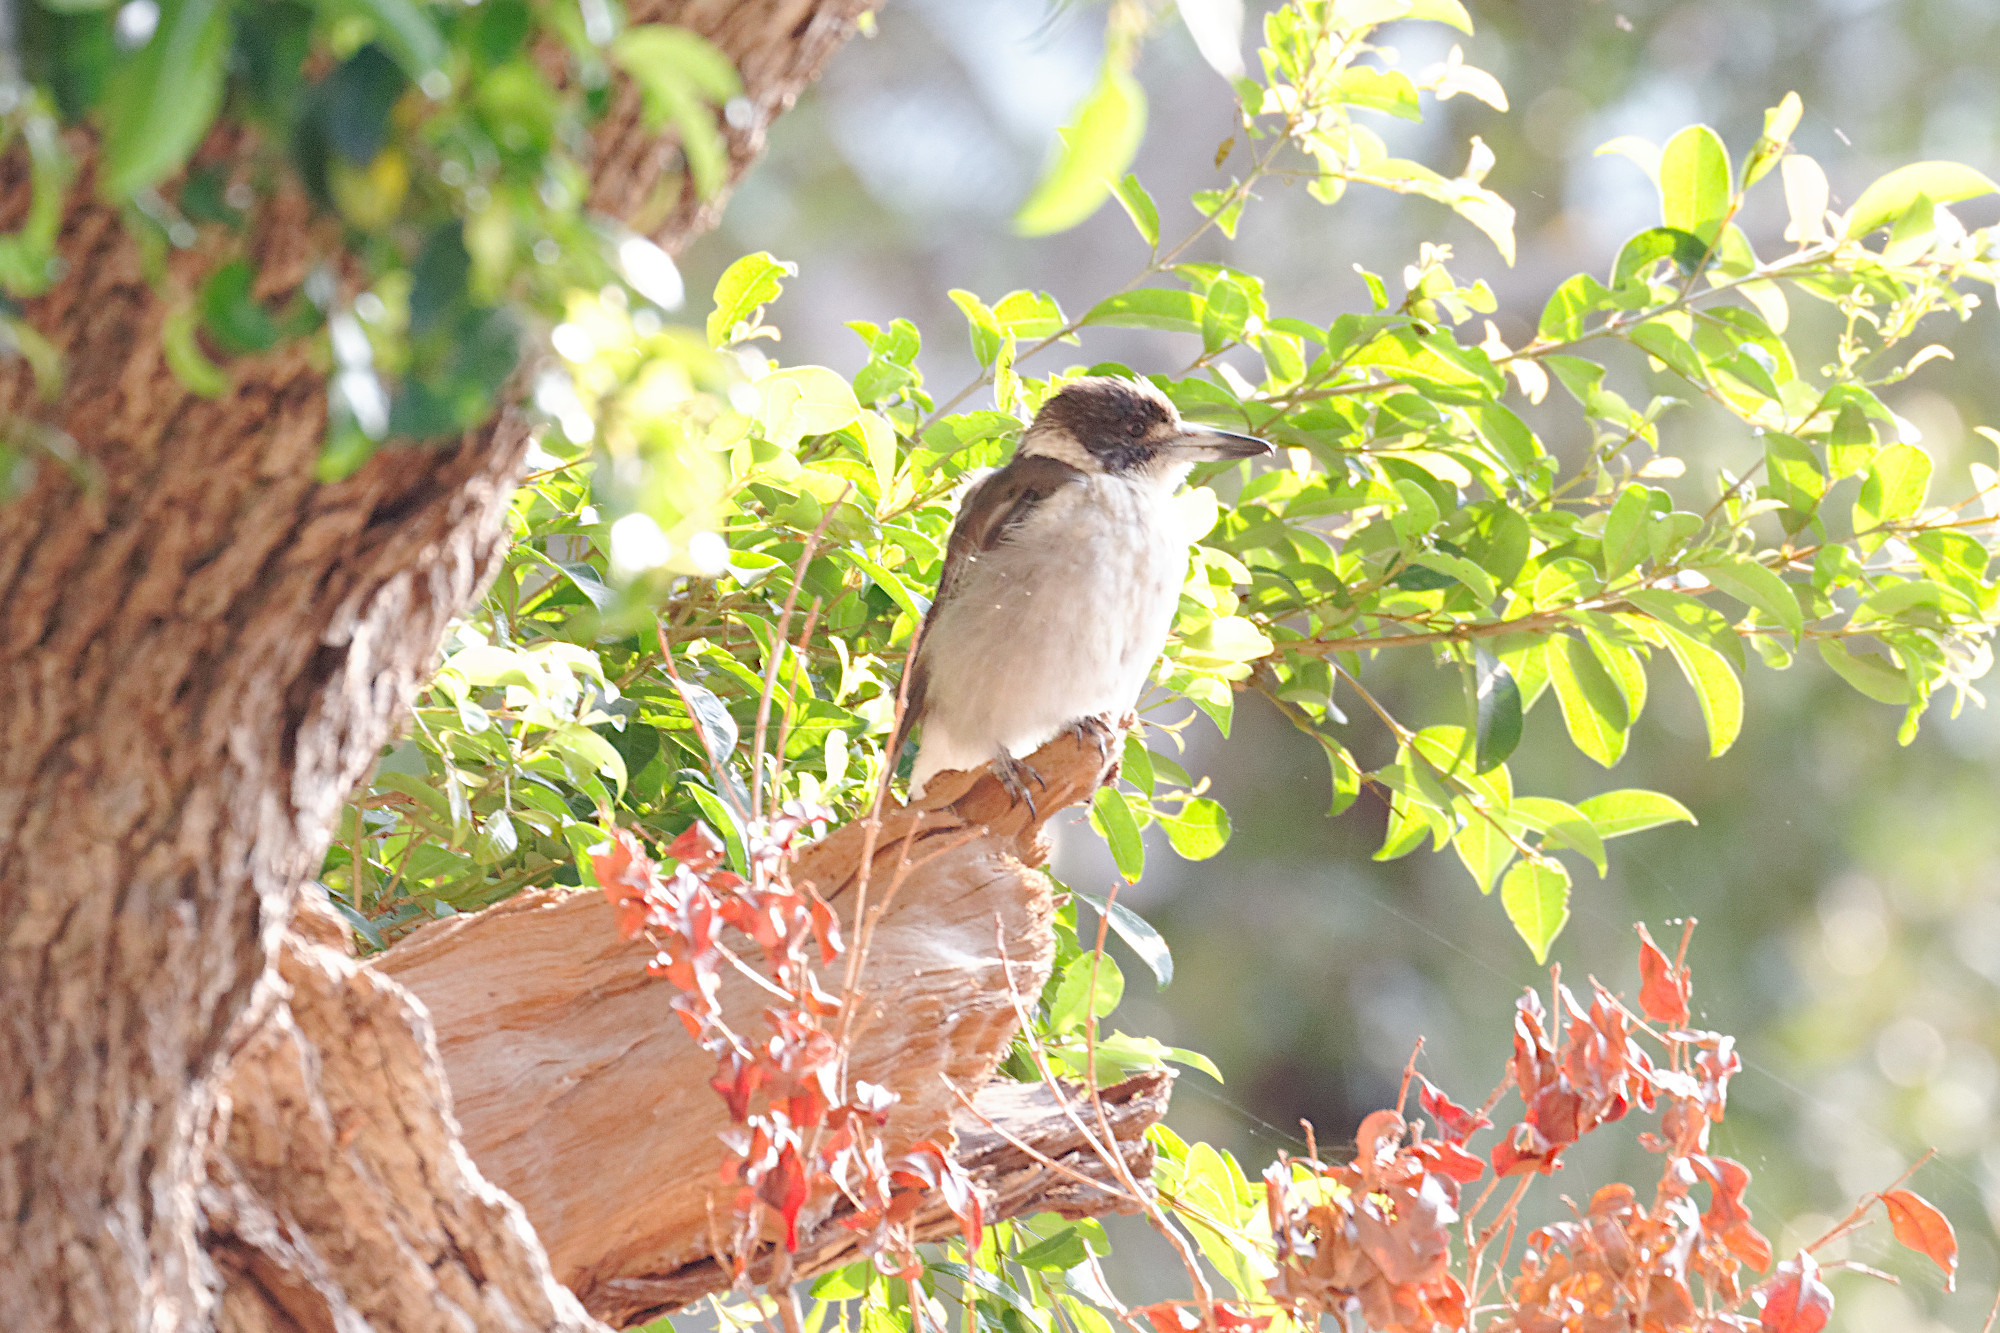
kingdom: Animalia
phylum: Chordata
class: Aves
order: Passeriformes
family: Cracticidae
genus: Cracticus
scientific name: Cracticus torquatus
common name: Grey butcherbird
